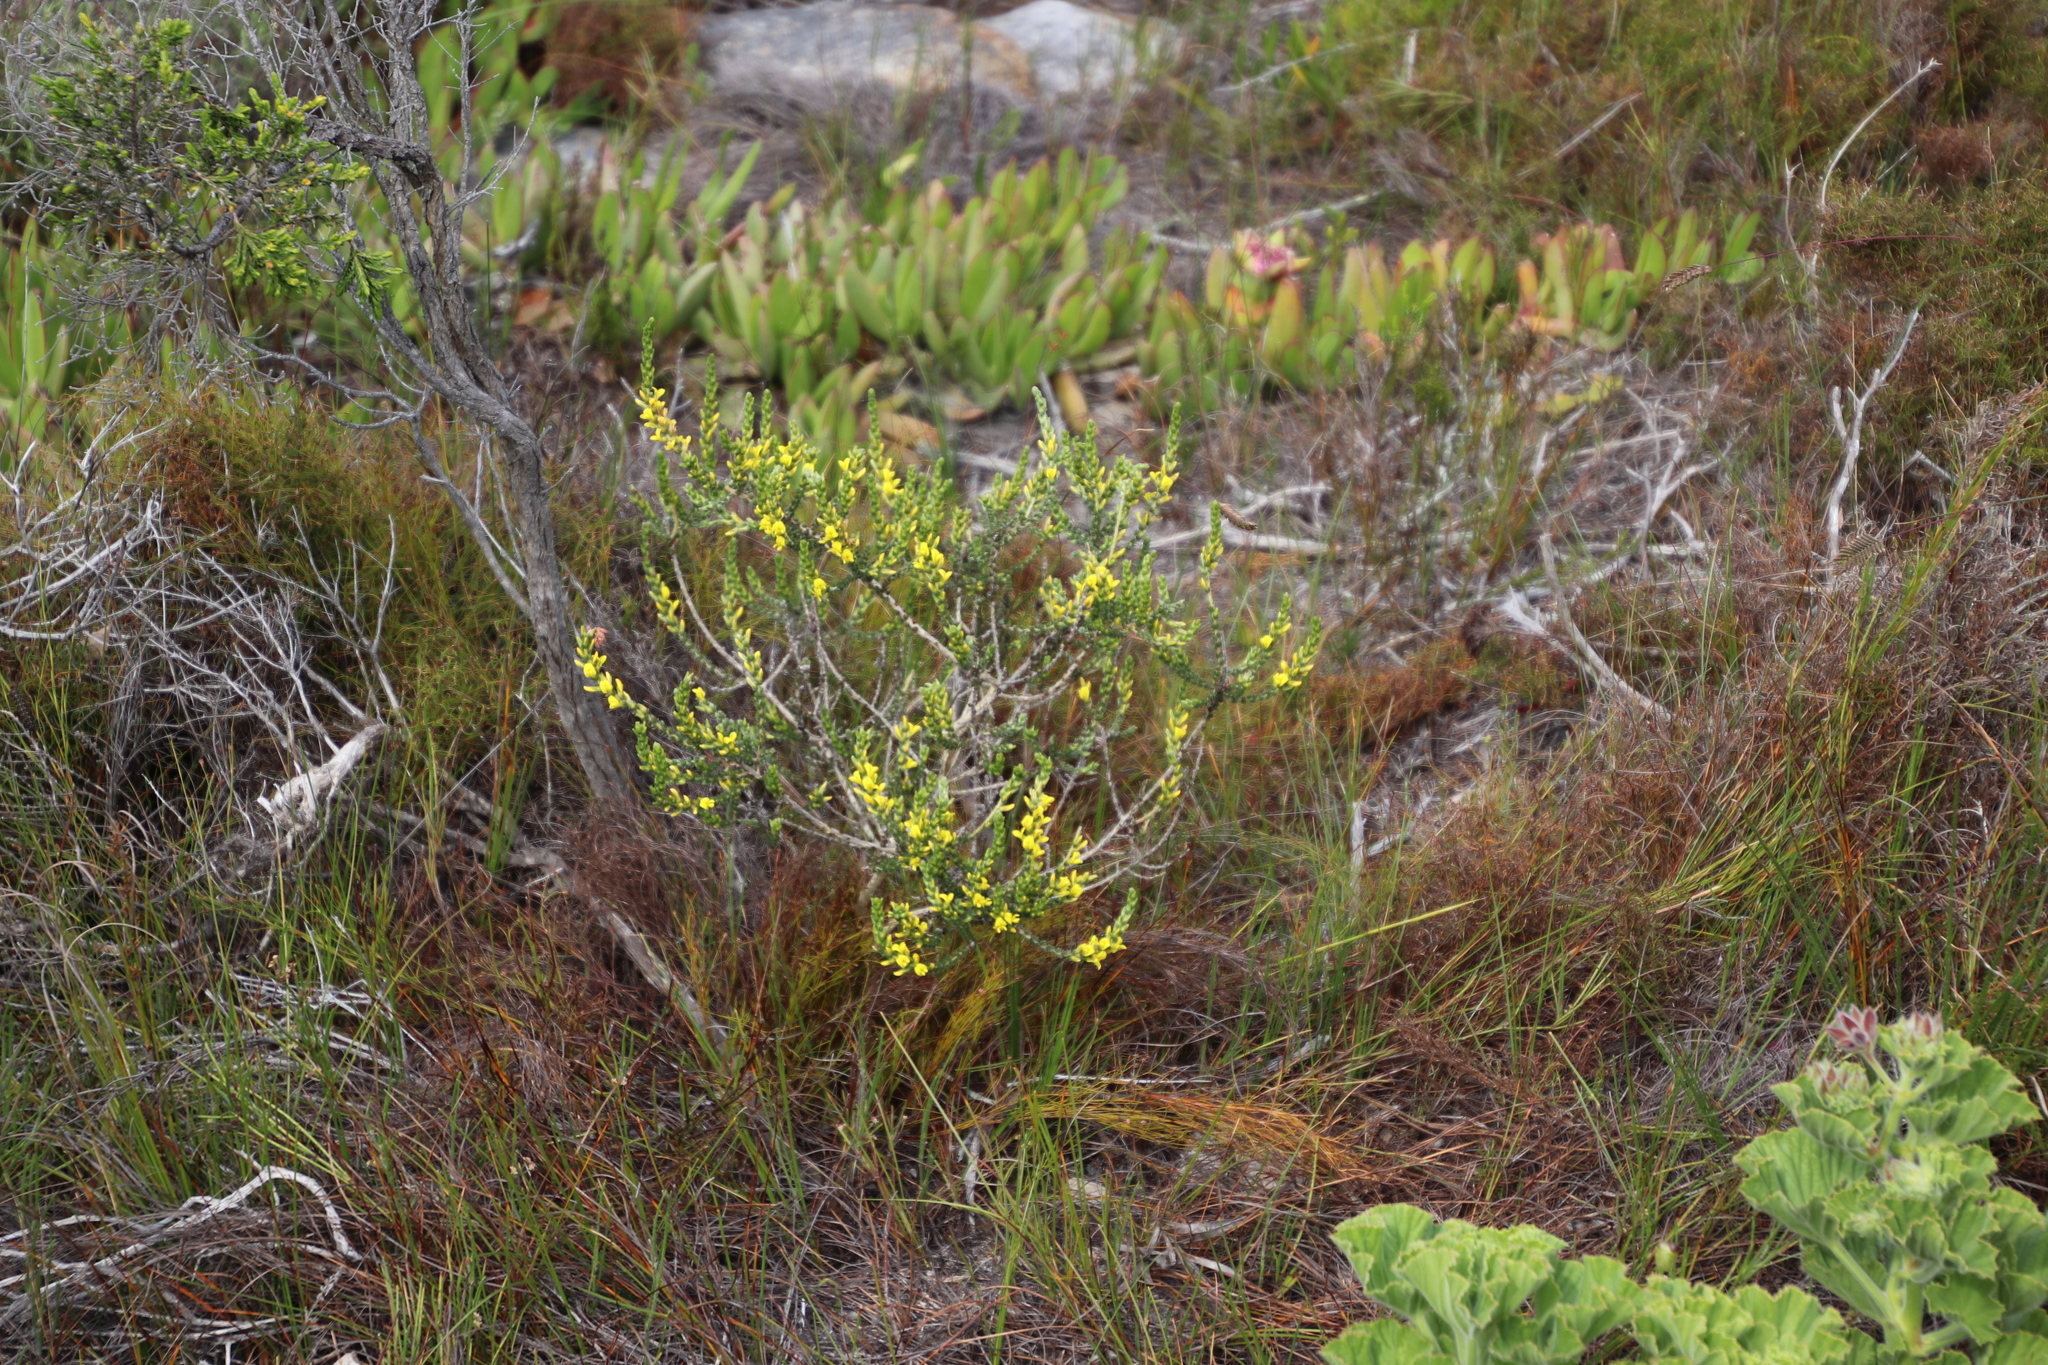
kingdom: Plantae
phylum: Tracheophyta
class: Magnoliopsida
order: Fabales
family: Fabaceae
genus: Aspalathus
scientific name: Aspalathus ericifolia
